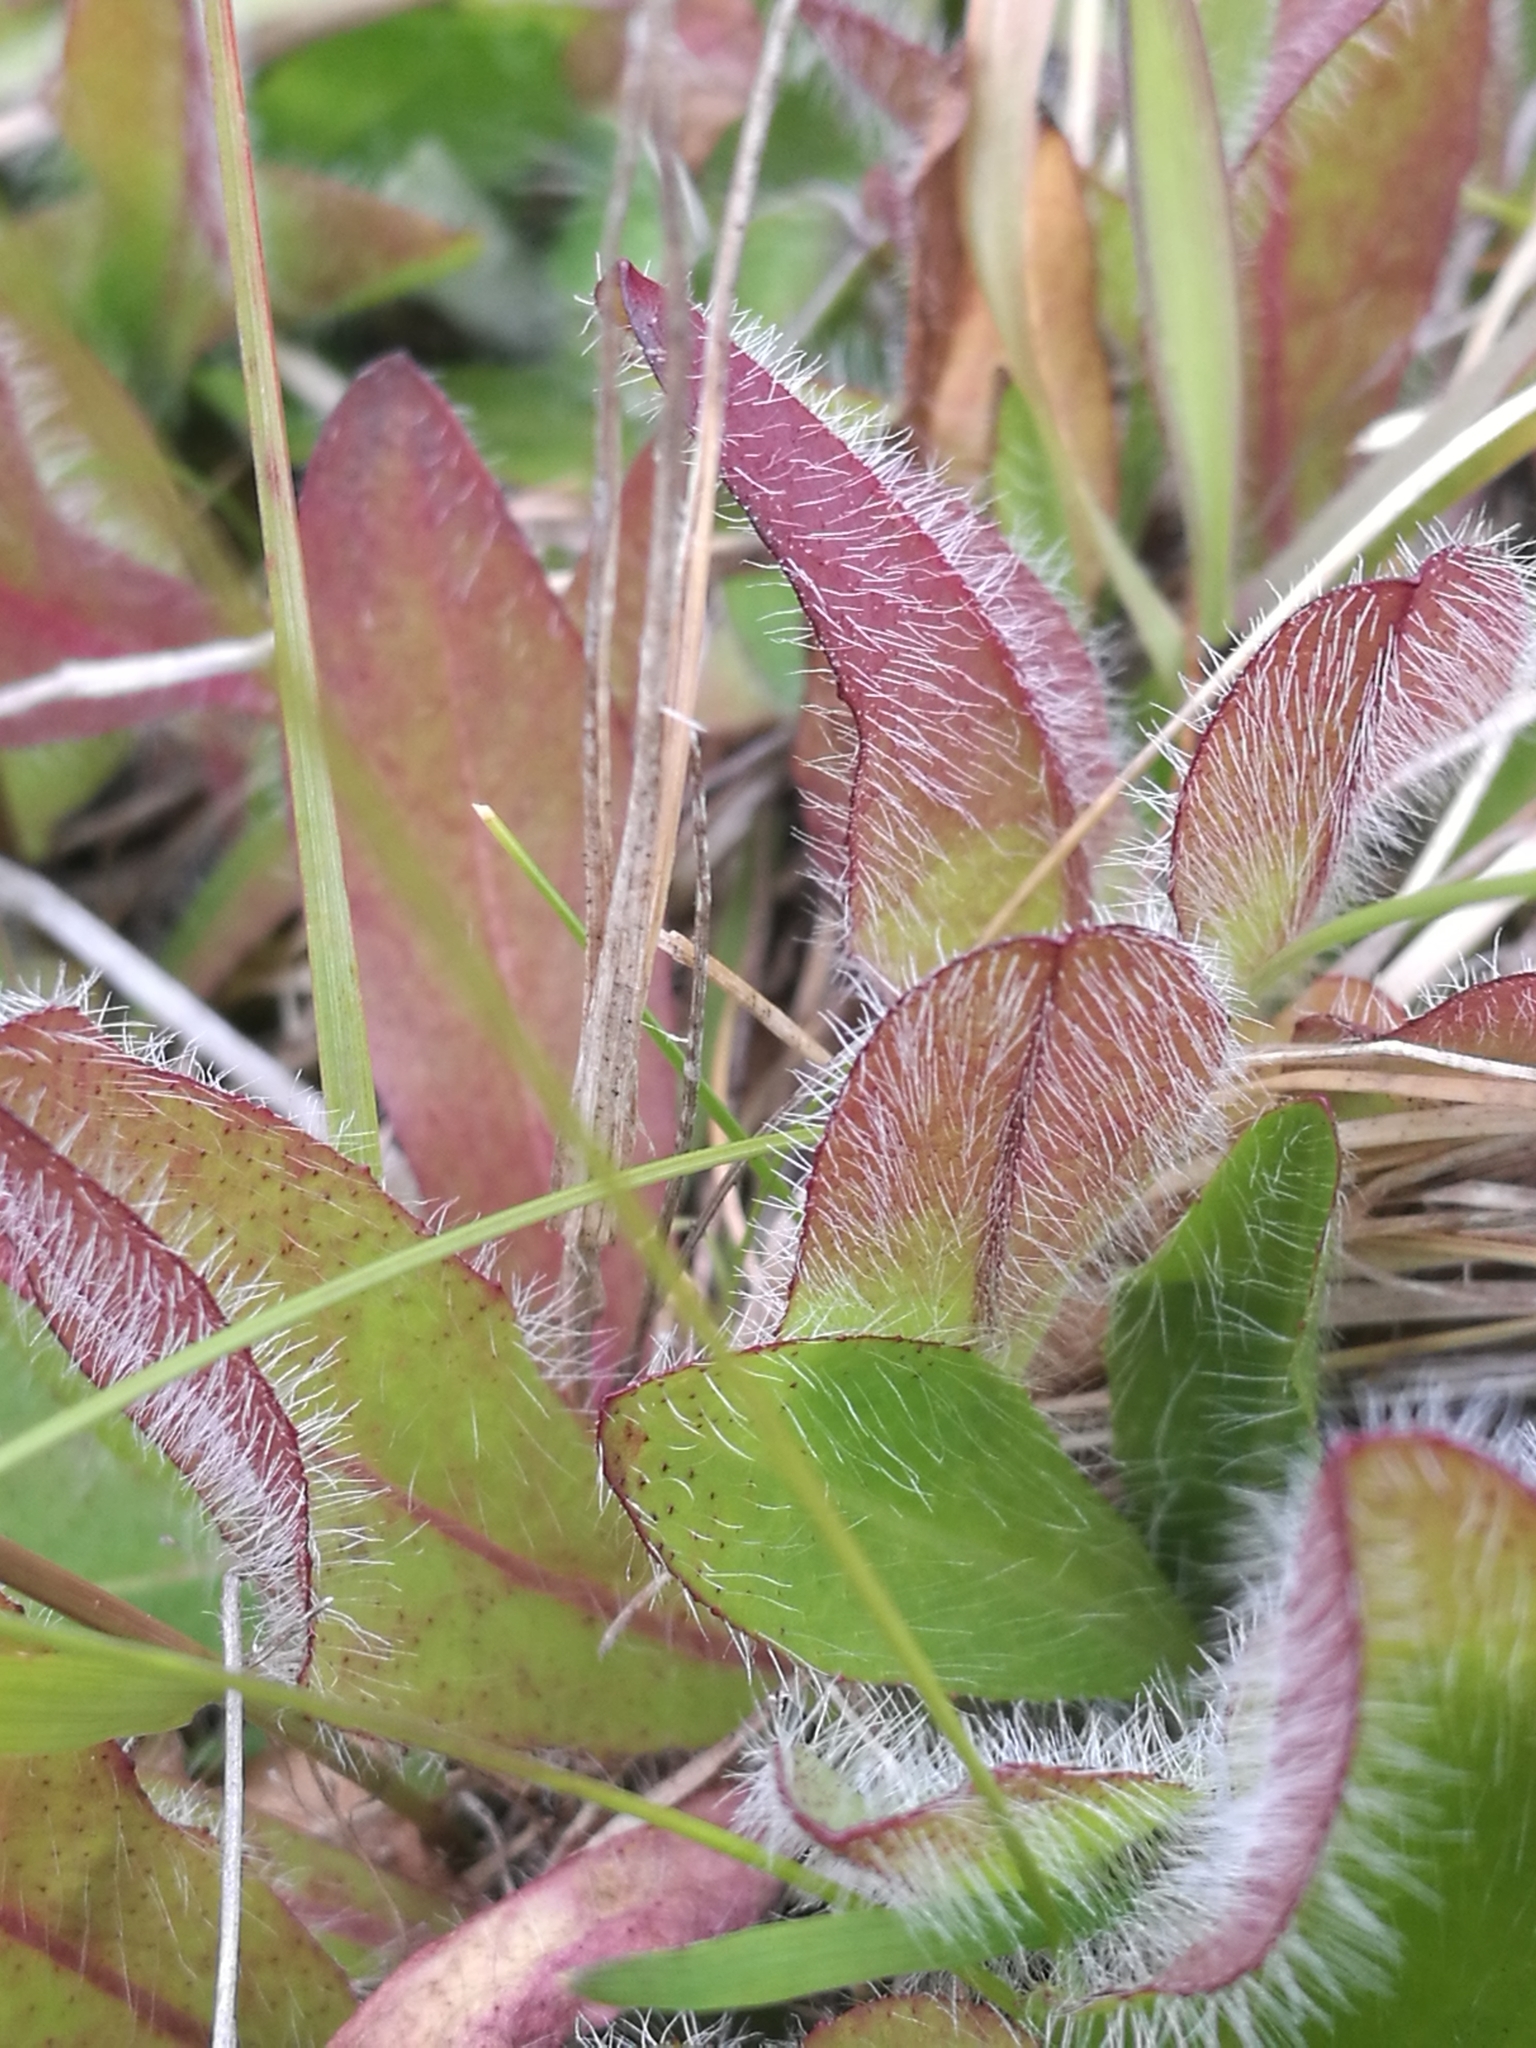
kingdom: Plantae
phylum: Tracheophyta
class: Magnoliopsida
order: Asterales
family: Asteraceae
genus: Pilosella
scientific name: Pilosella aurantiaca
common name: Fox-and-cubs
